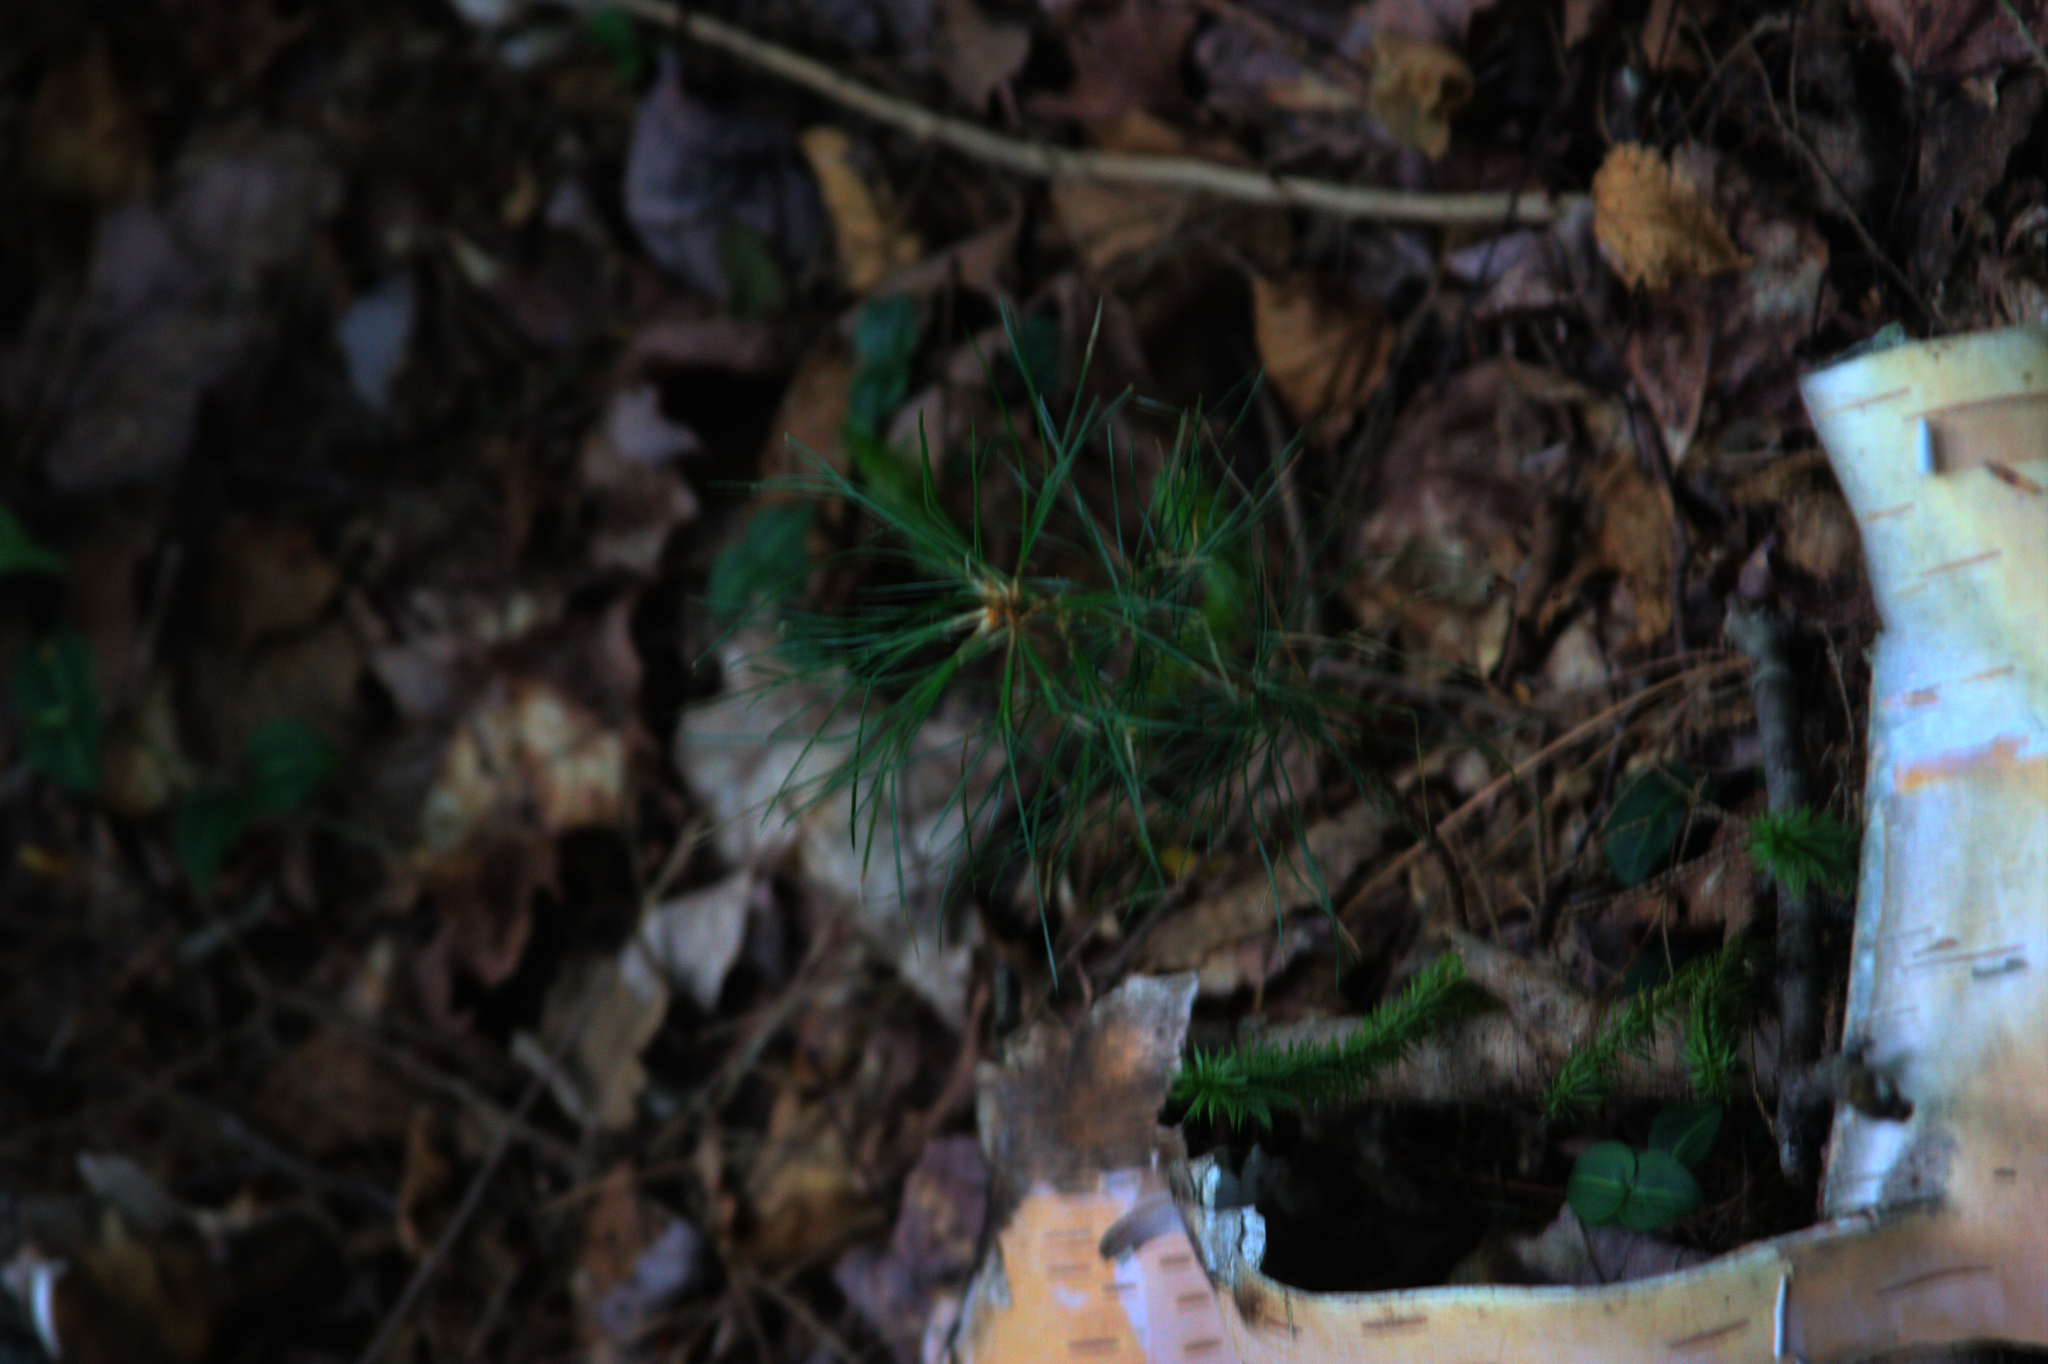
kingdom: Plantae
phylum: Tracheophyta
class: Pinopsida
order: Pinales
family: Pinaceae
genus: Pinus
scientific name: Pinus strobus
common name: Weymouth pine
